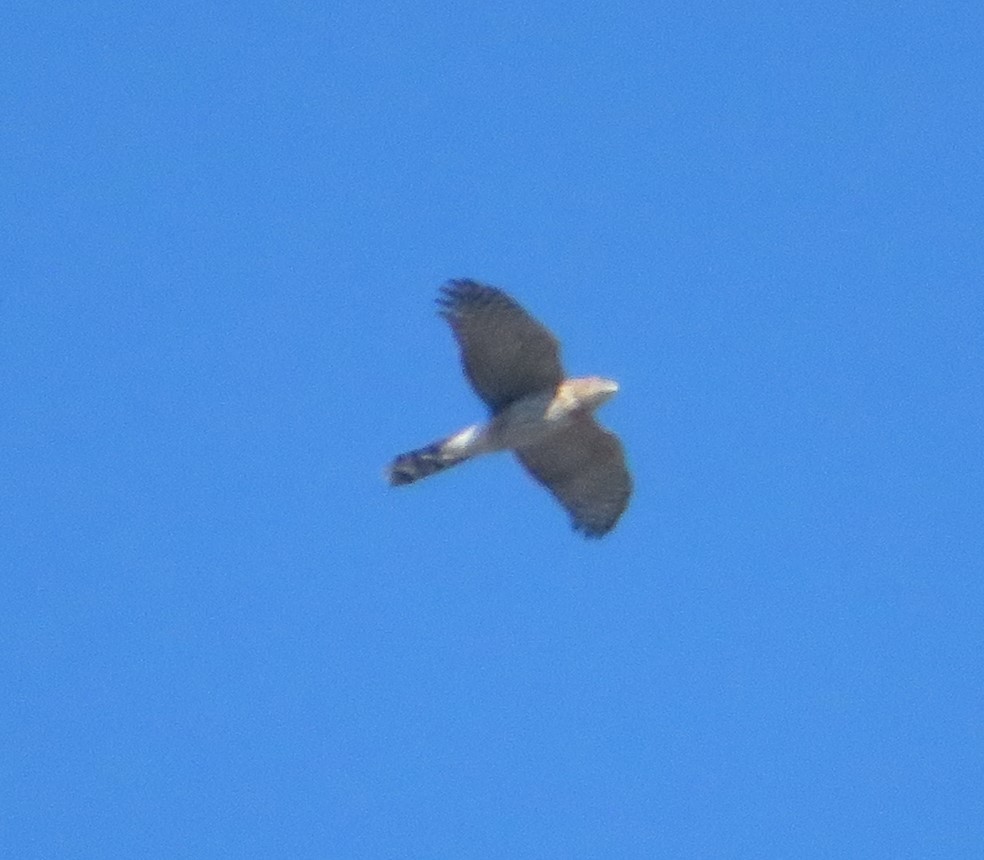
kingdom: Animalia
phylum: Chordata
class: Aves
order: Accipitriformes
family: Accipitridae
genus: Accipiter
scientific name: Accipiter cooperii
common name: Cooper's hawk
